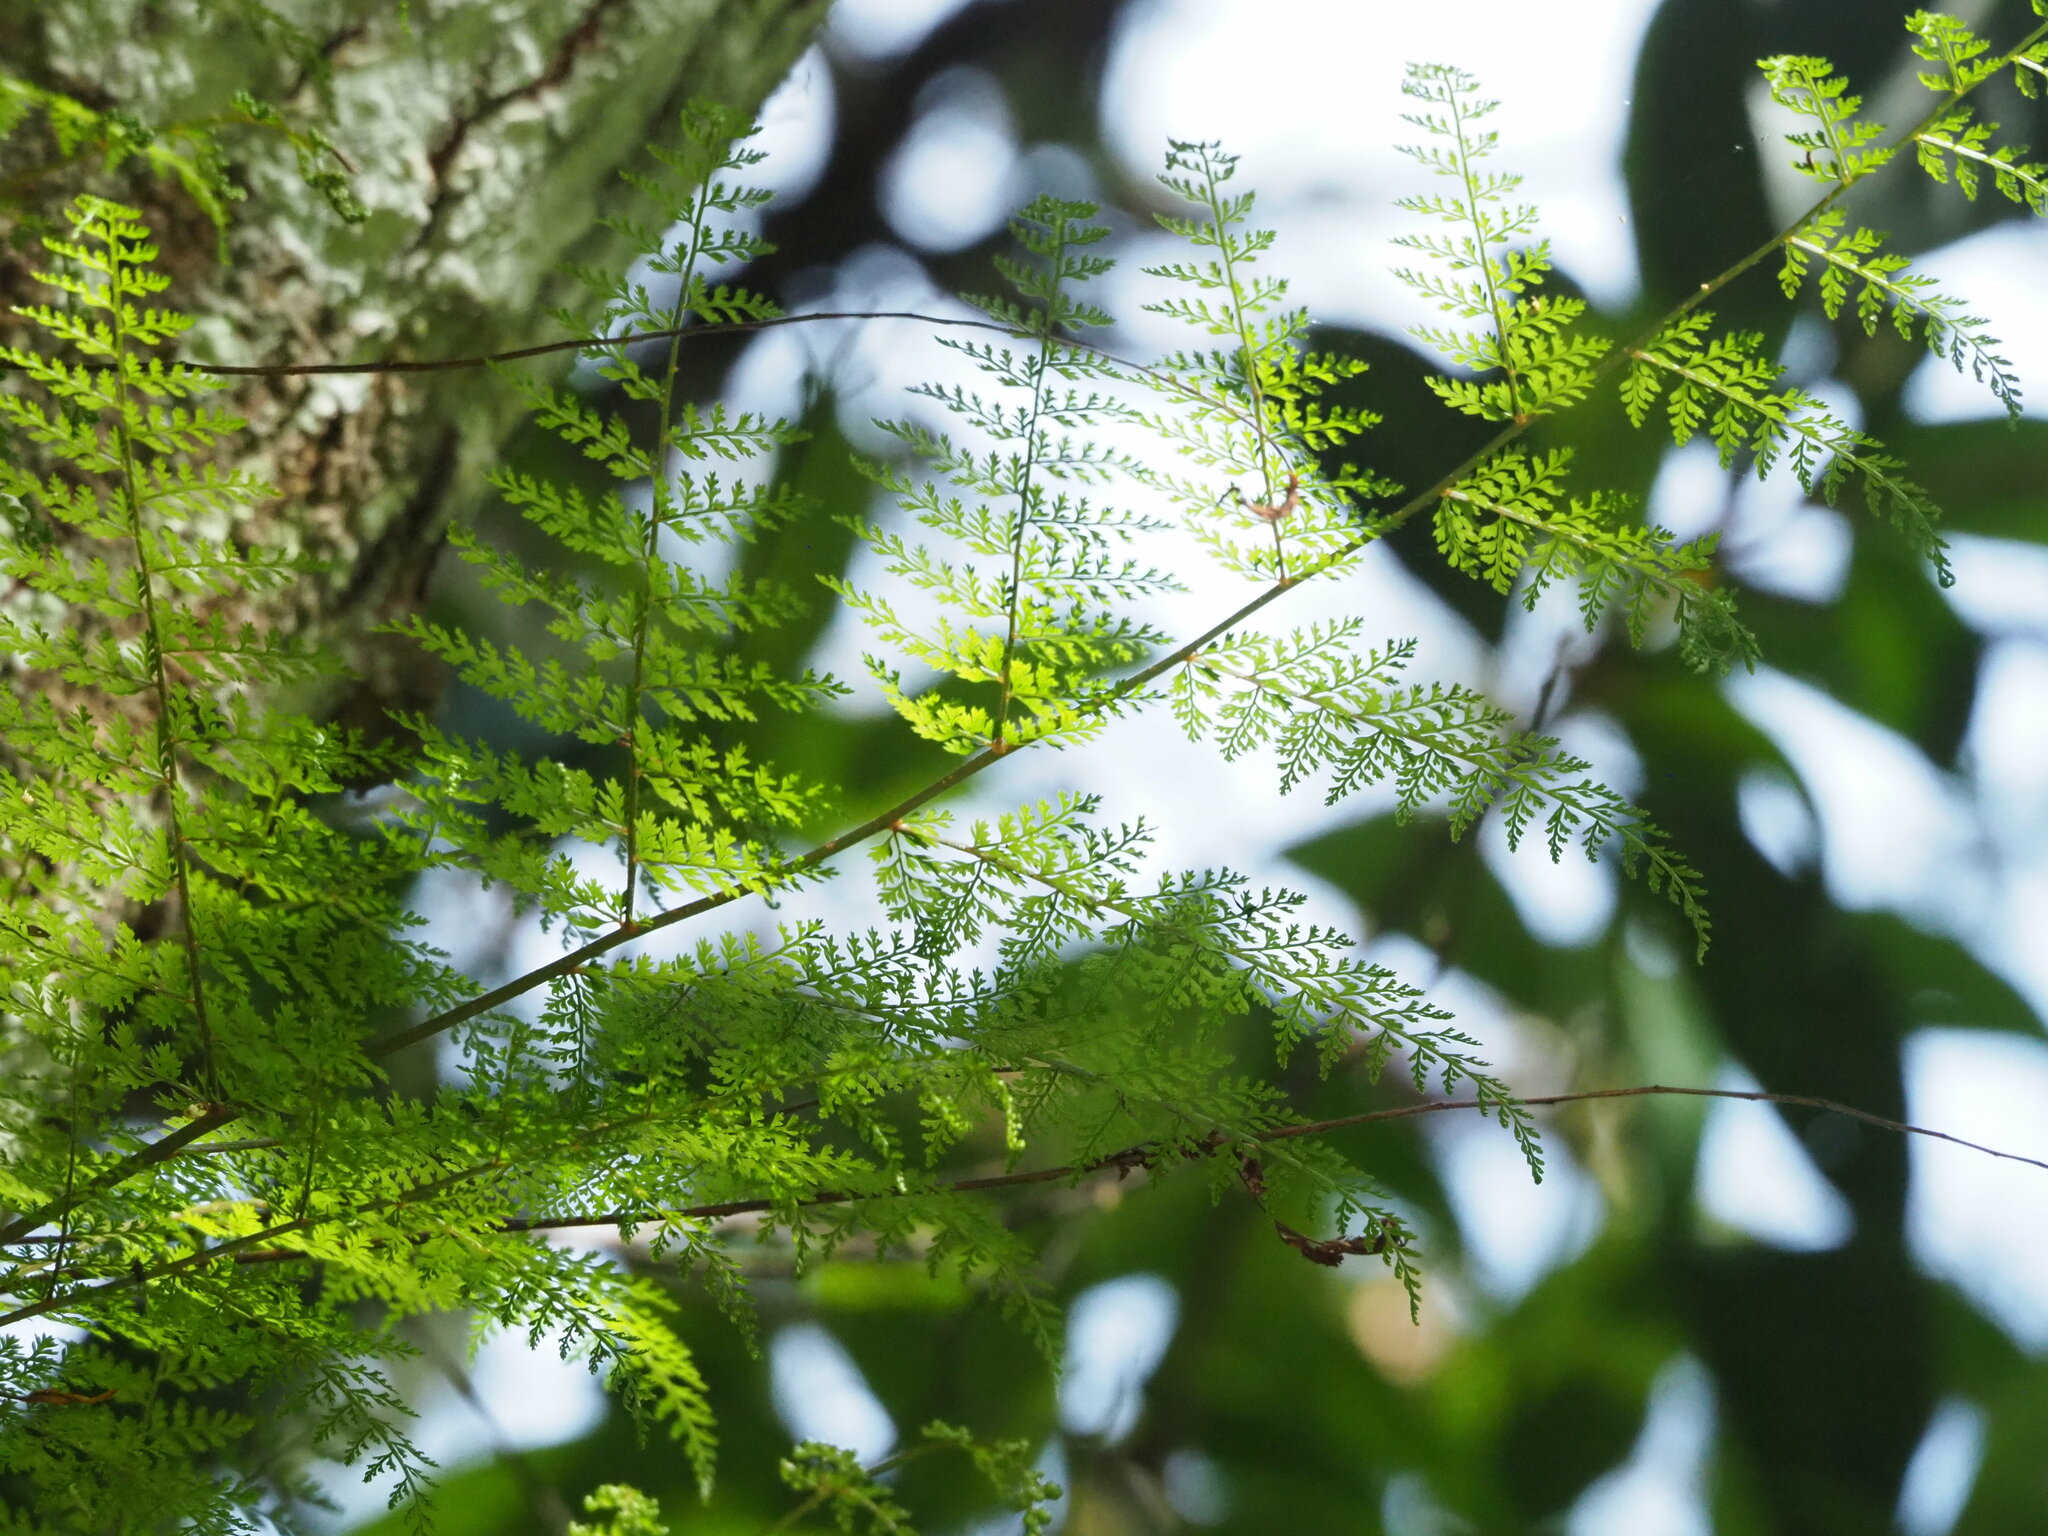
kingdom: Plantae
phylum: Tracheophyta
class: Polypodiopsida
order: Polypodiales
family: Davalliaceae
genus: Davallia
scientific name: Davallia perdurans
